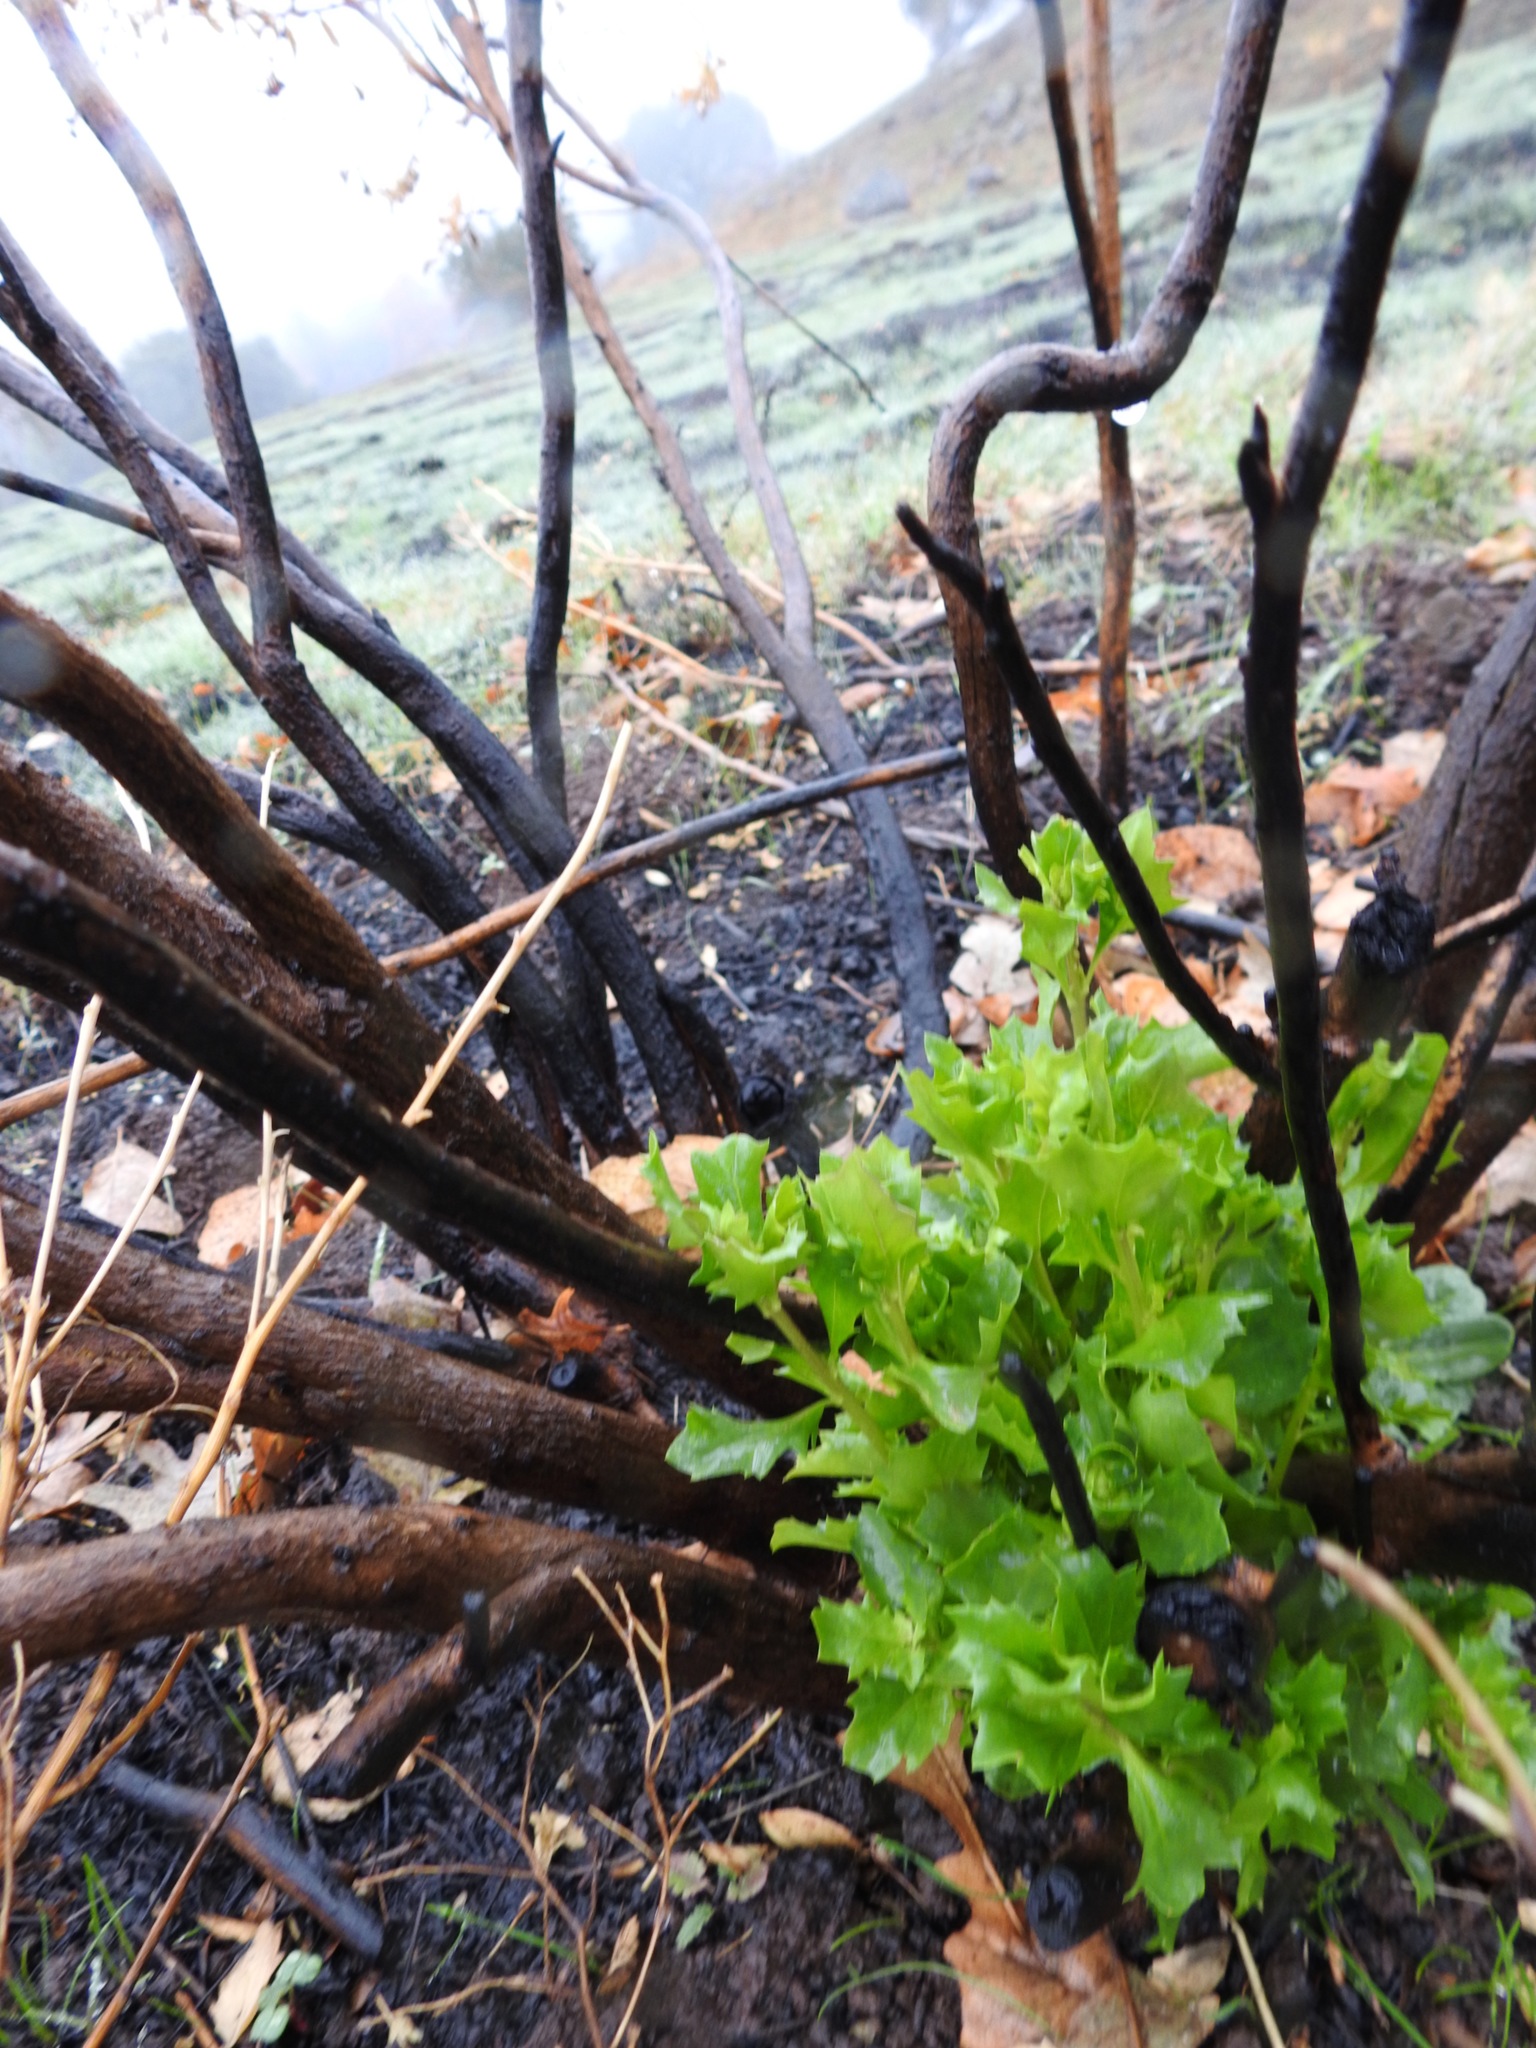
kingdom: Plantae
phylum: Tracheophyta
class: Magnoliopsida
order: Asterales
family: Asteraceae
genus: Baccharis
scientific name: Baccharis pilularis
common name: Coyotebrush
